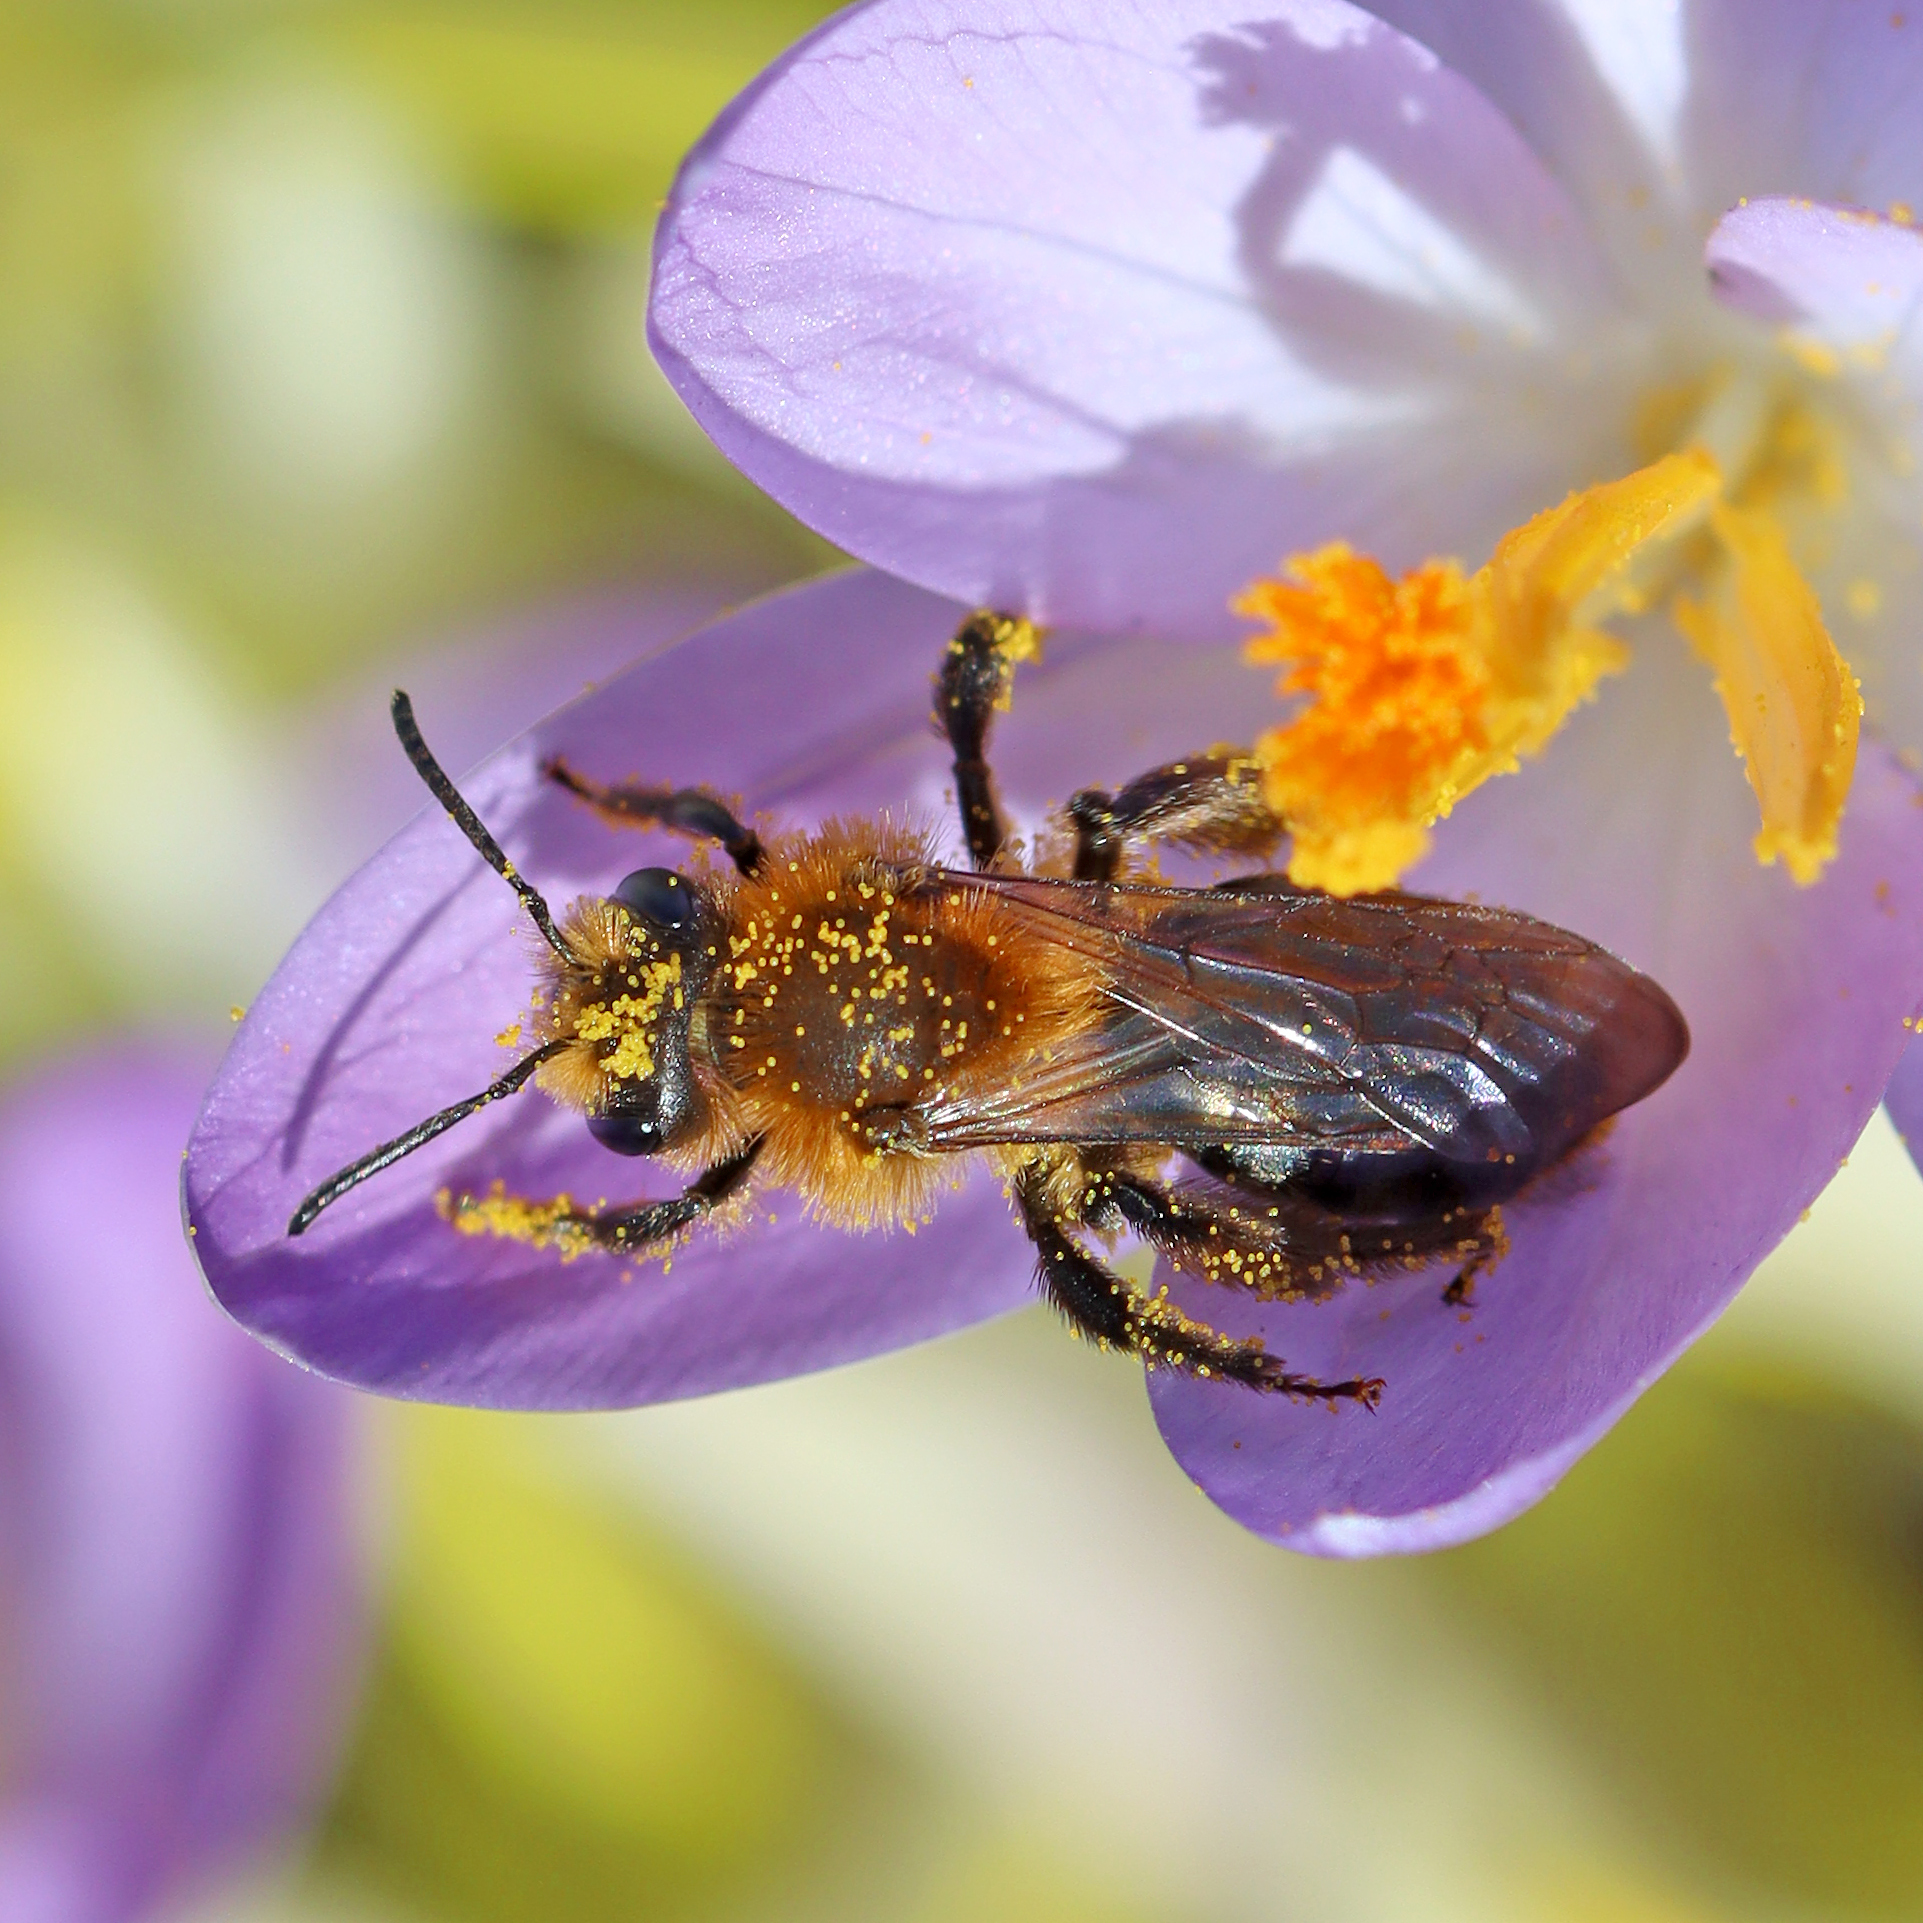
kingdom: Animalia
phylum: Arthropoda
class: Insecta
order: Hymenoptera
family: Andrenidae
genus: Andrena
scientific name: Andrena dunningi
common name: Dunning's miner
